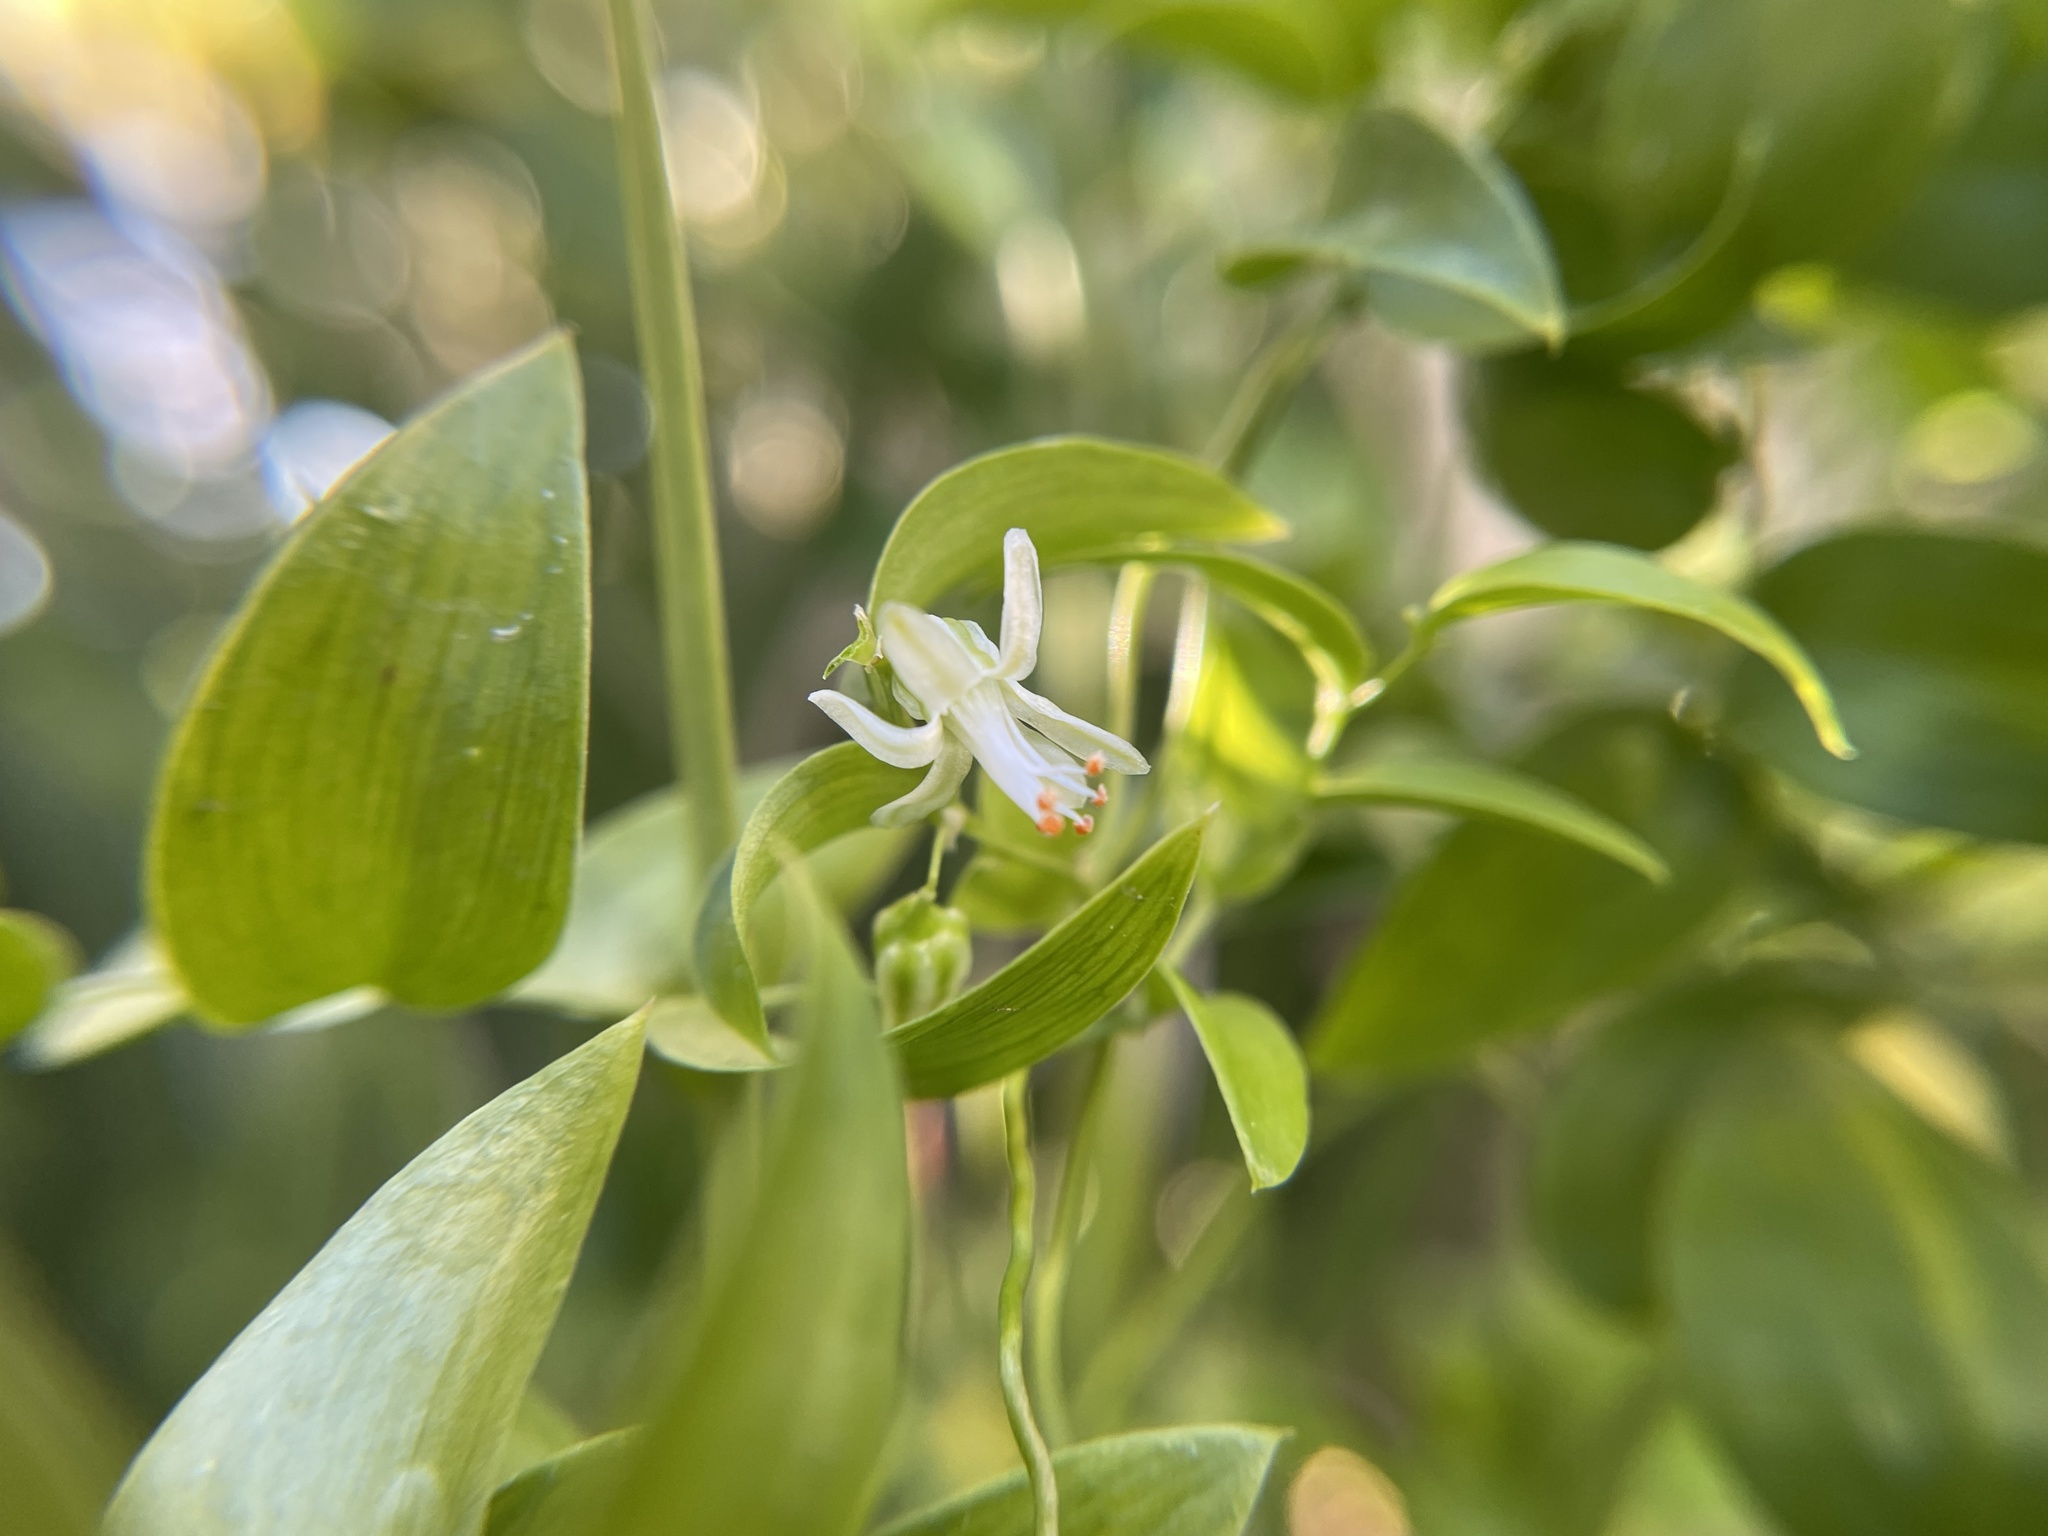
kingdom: Plantae
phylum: Tracheophyta
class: Liliopsida
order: Asparagales
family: Asparagaceae
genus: Asparagus
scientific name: Asparagus asparagoides
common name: African asparagus fern
